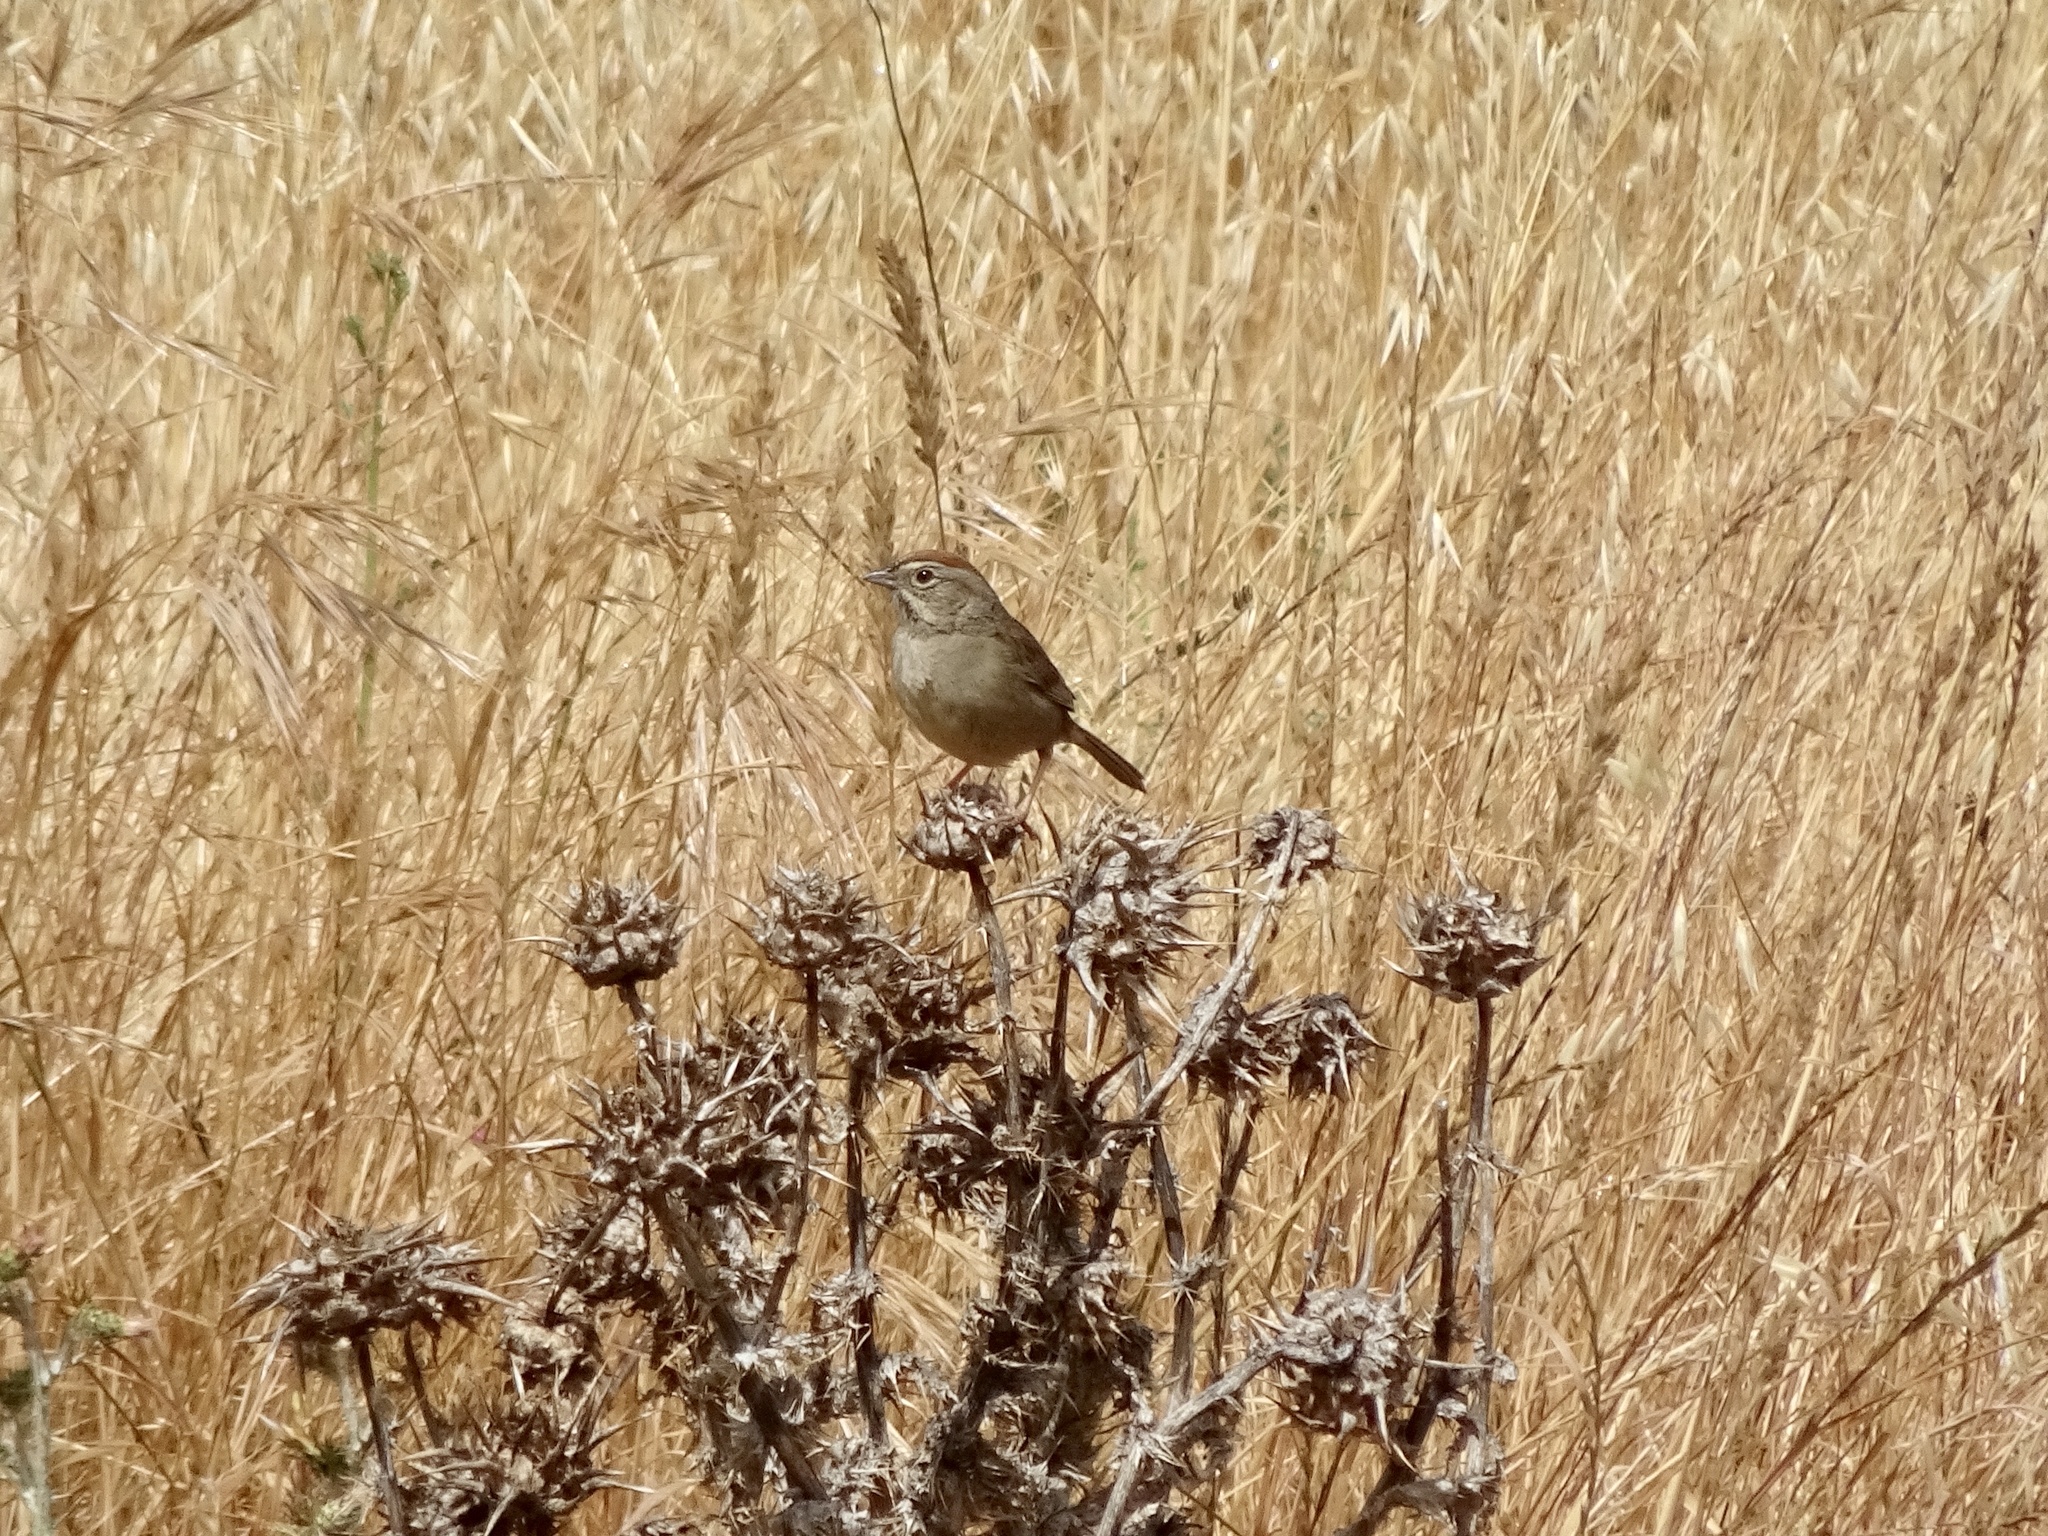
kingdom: Animalia
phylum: Chordata
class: Aves
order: Passeriformes
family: Passerellidae
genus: Aimophila
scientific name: Aimophila ruficeps
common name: Rufous-crowned sparrow
